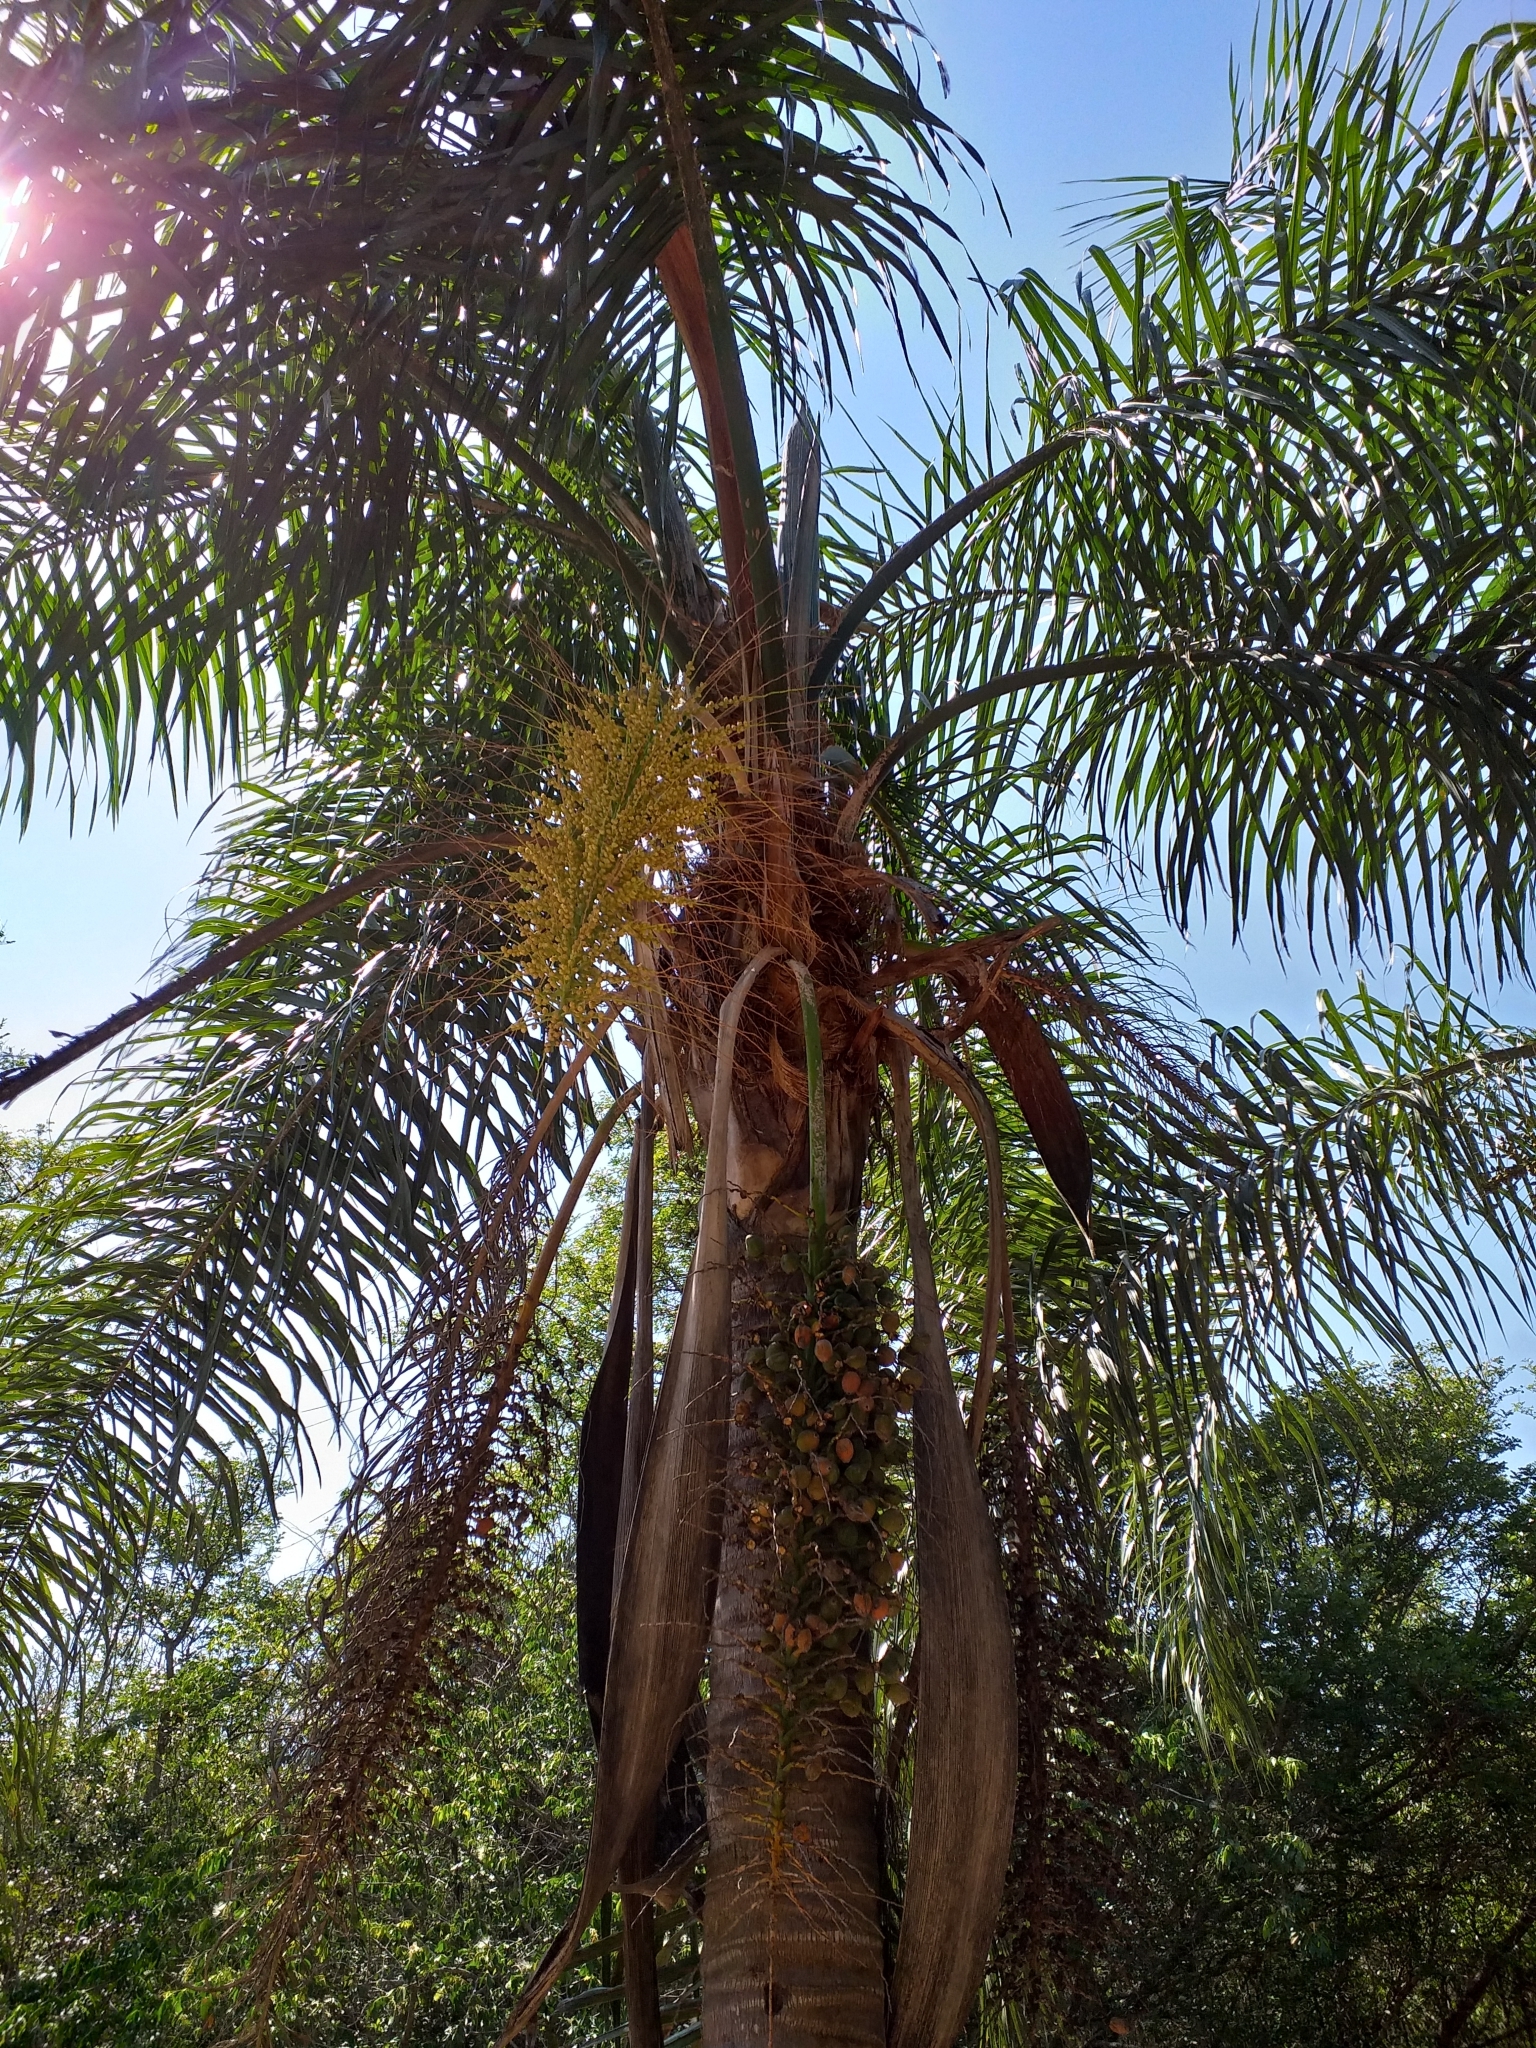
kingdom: Plantae
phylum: Tracheophyta
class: Liliopsida
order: Arecales
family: Arecaceae
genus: Syagrus
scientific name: Syagrus romanzoffiana
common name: Queen palm
